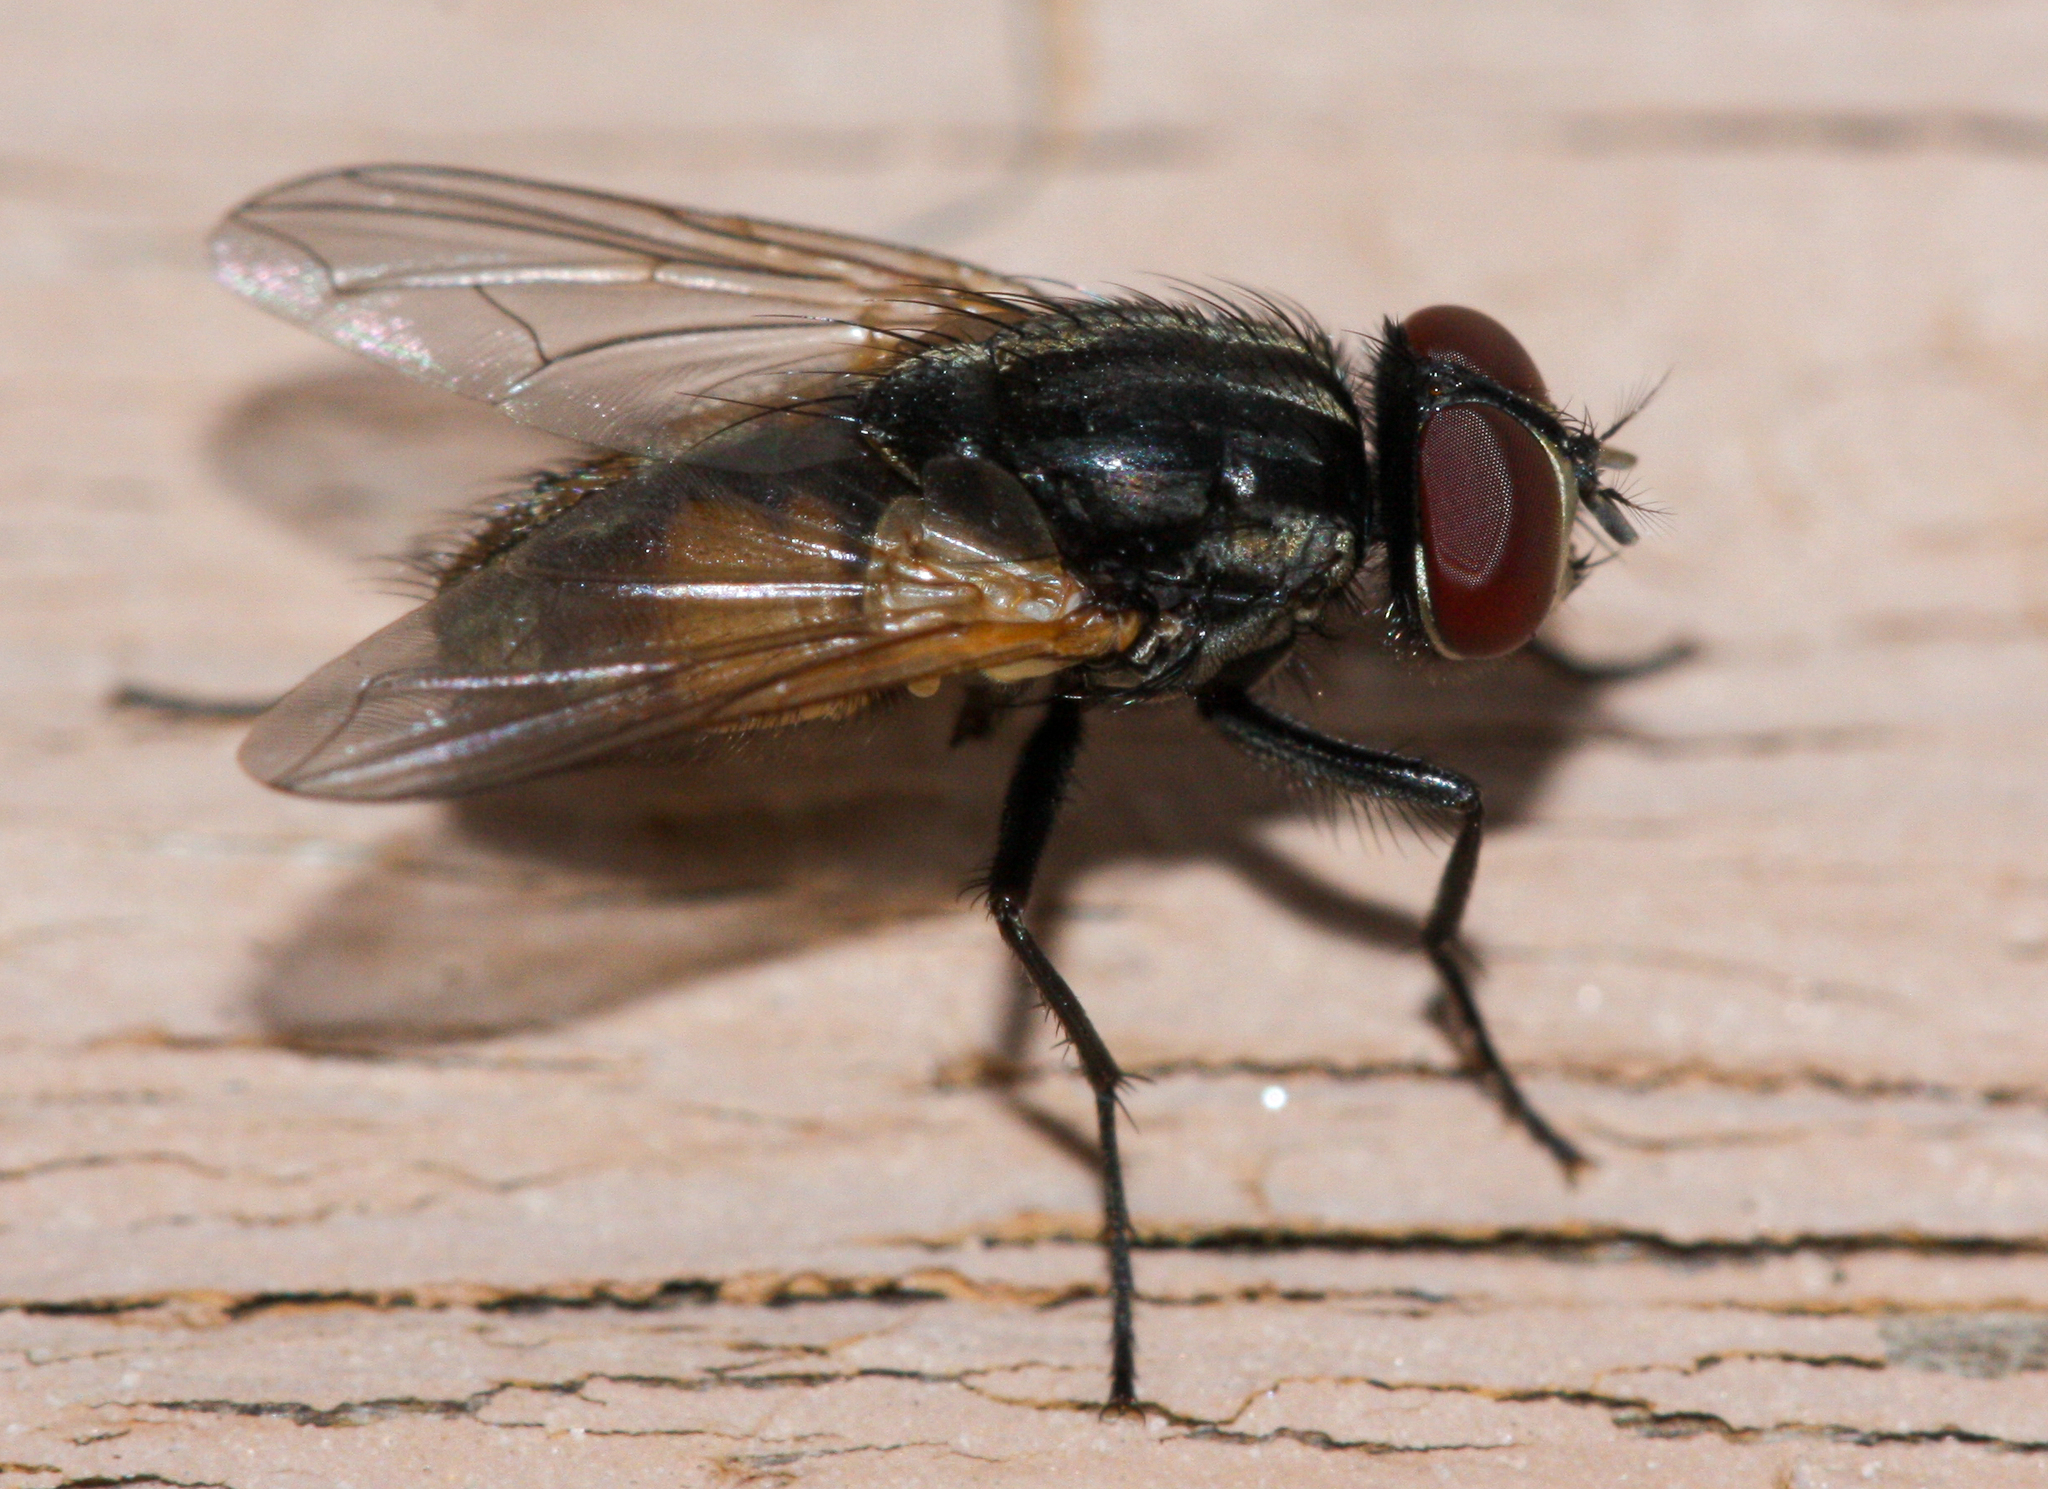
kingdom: Animalia
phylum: Arthropoda
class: Insecta
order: Diptera
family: Muscidae
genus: Musca
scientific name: Musca domestica
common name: House fly
